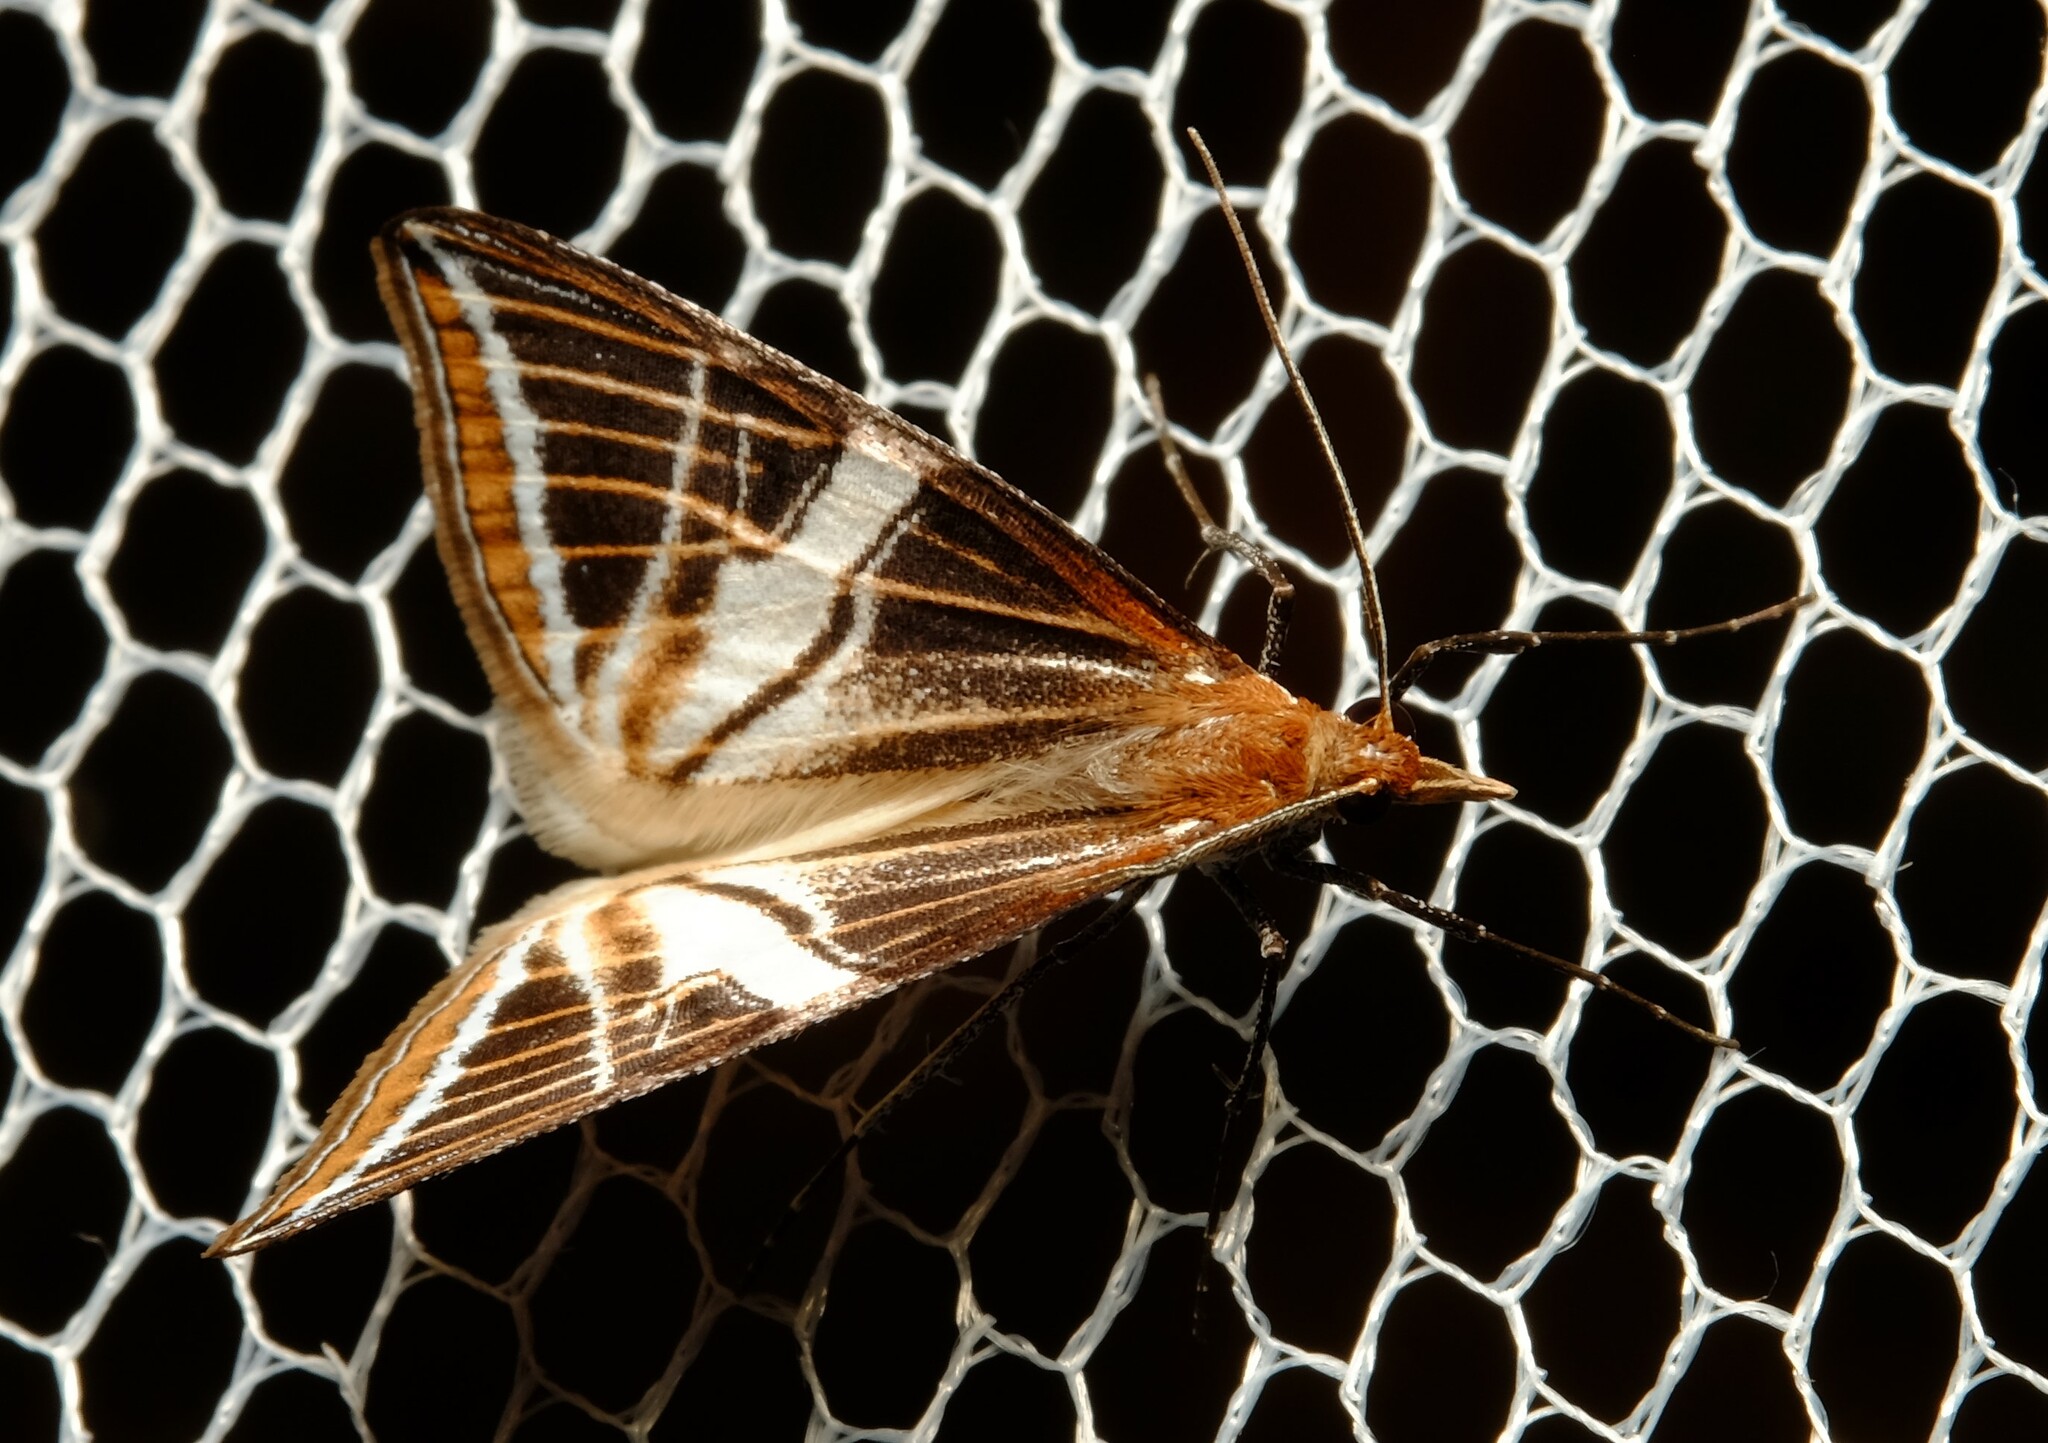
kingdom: Animalia
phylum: Arthropoda
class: Insecta
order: Lepidoptera
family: Geometridae
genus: Phrataria
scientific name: Phrataria transcissata
